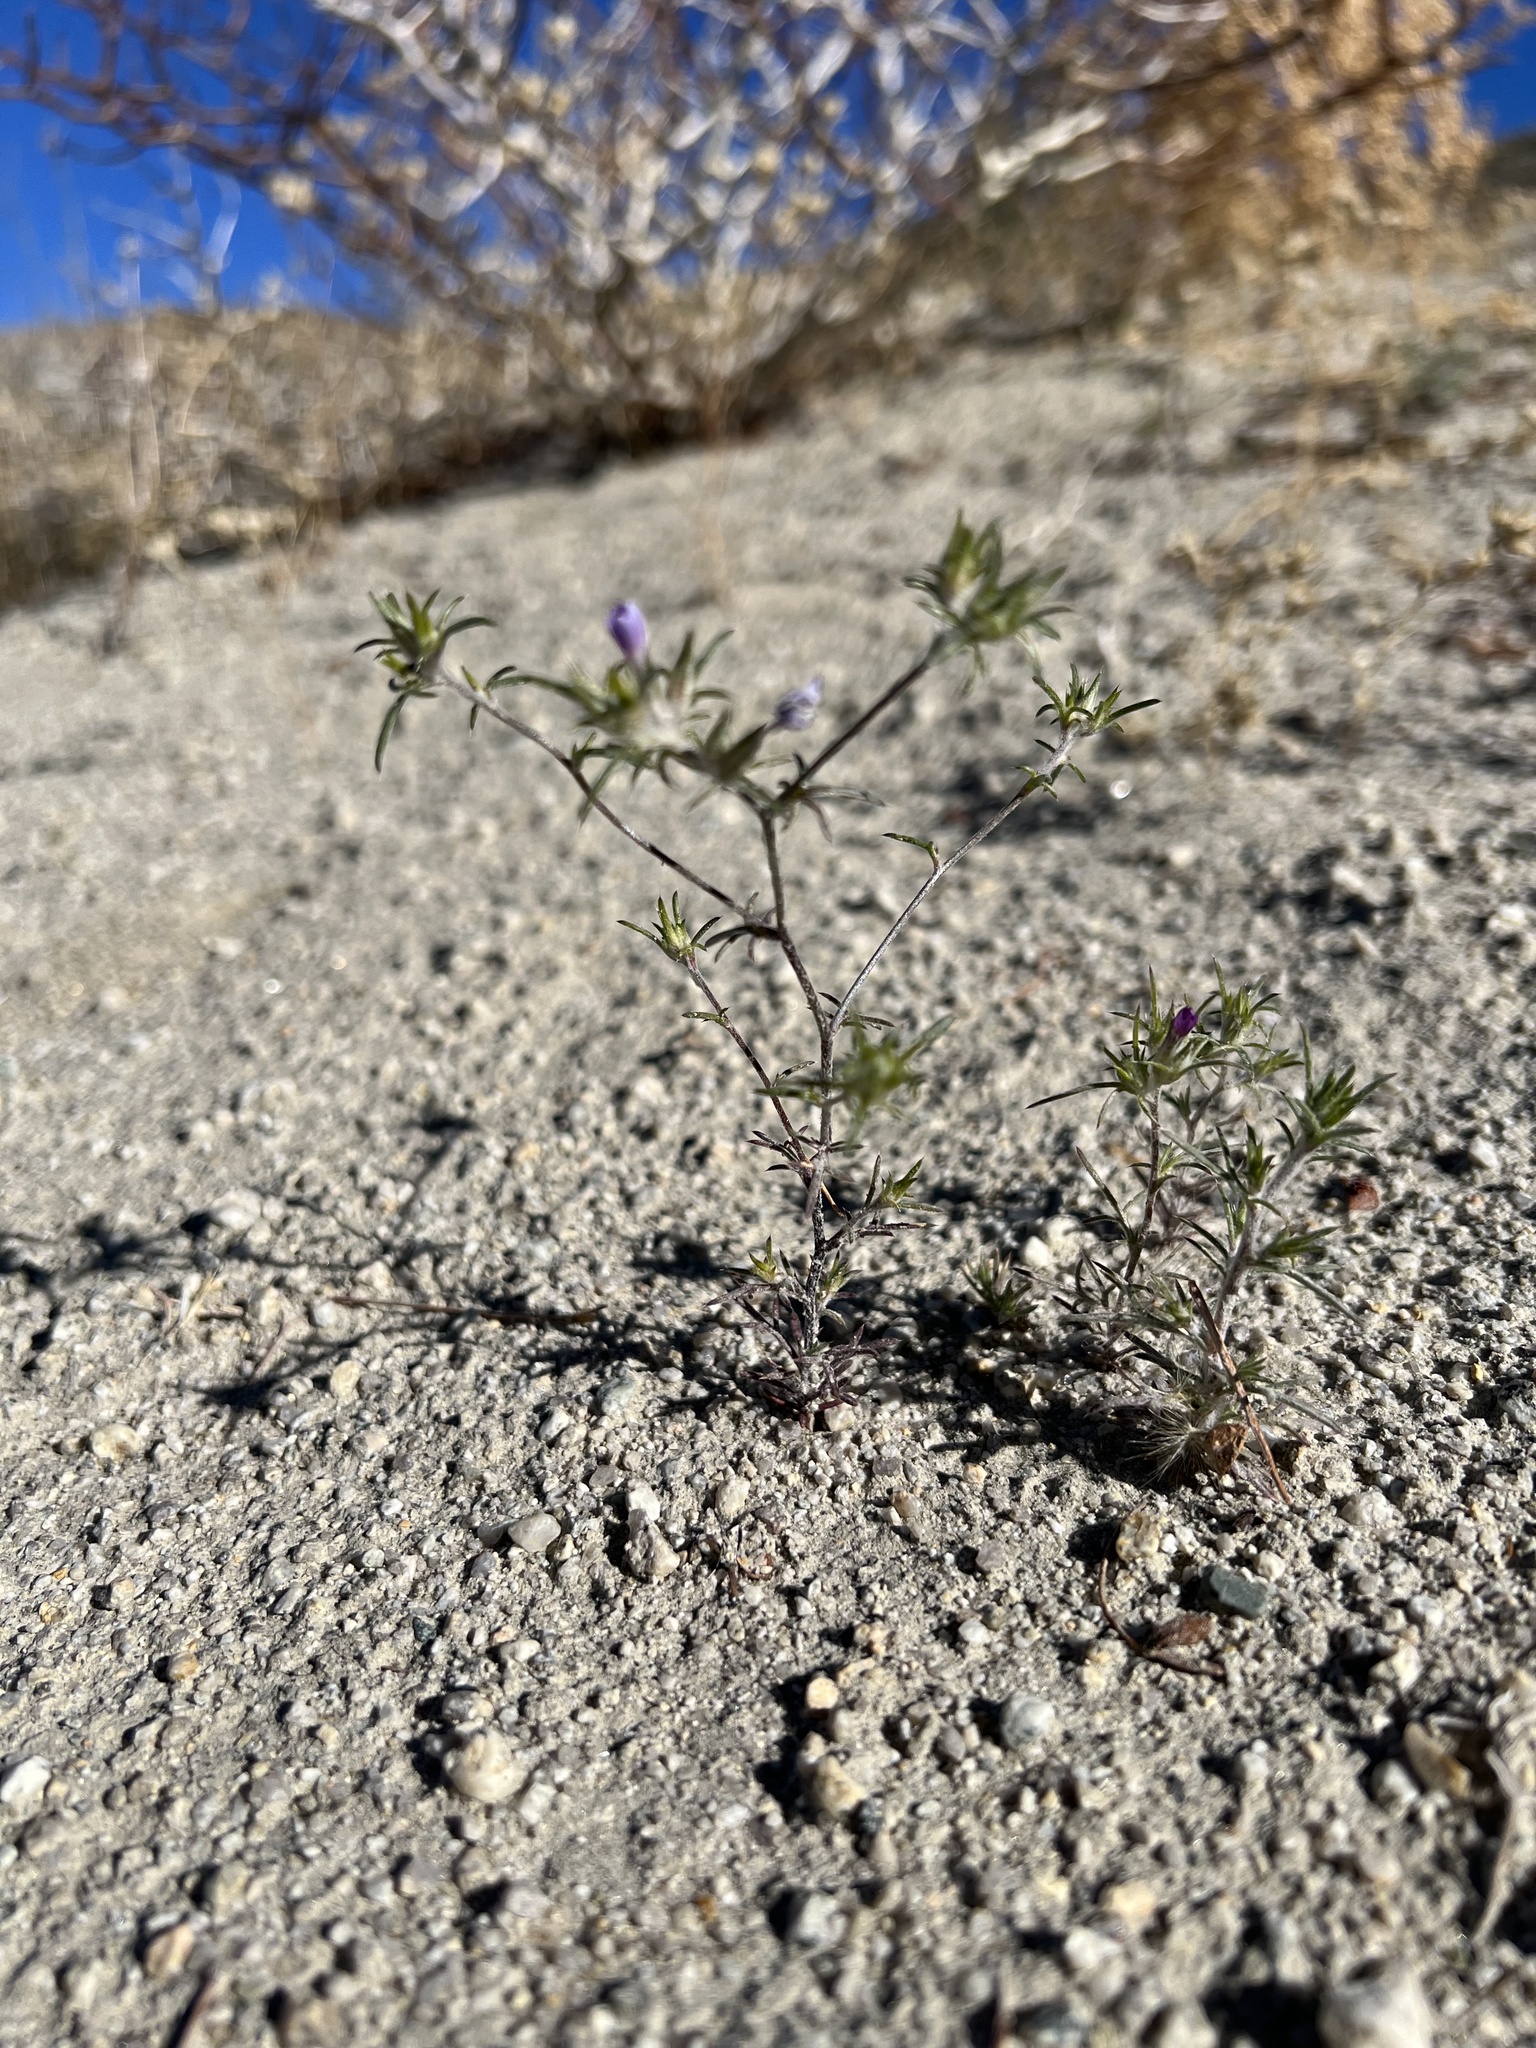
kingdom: Plantae
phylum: Tracheophyta
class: Magnoliopsida
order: Ericales
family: Polemoniaceae
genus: Eriastrum
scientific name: Eriastrum wilcoxii
